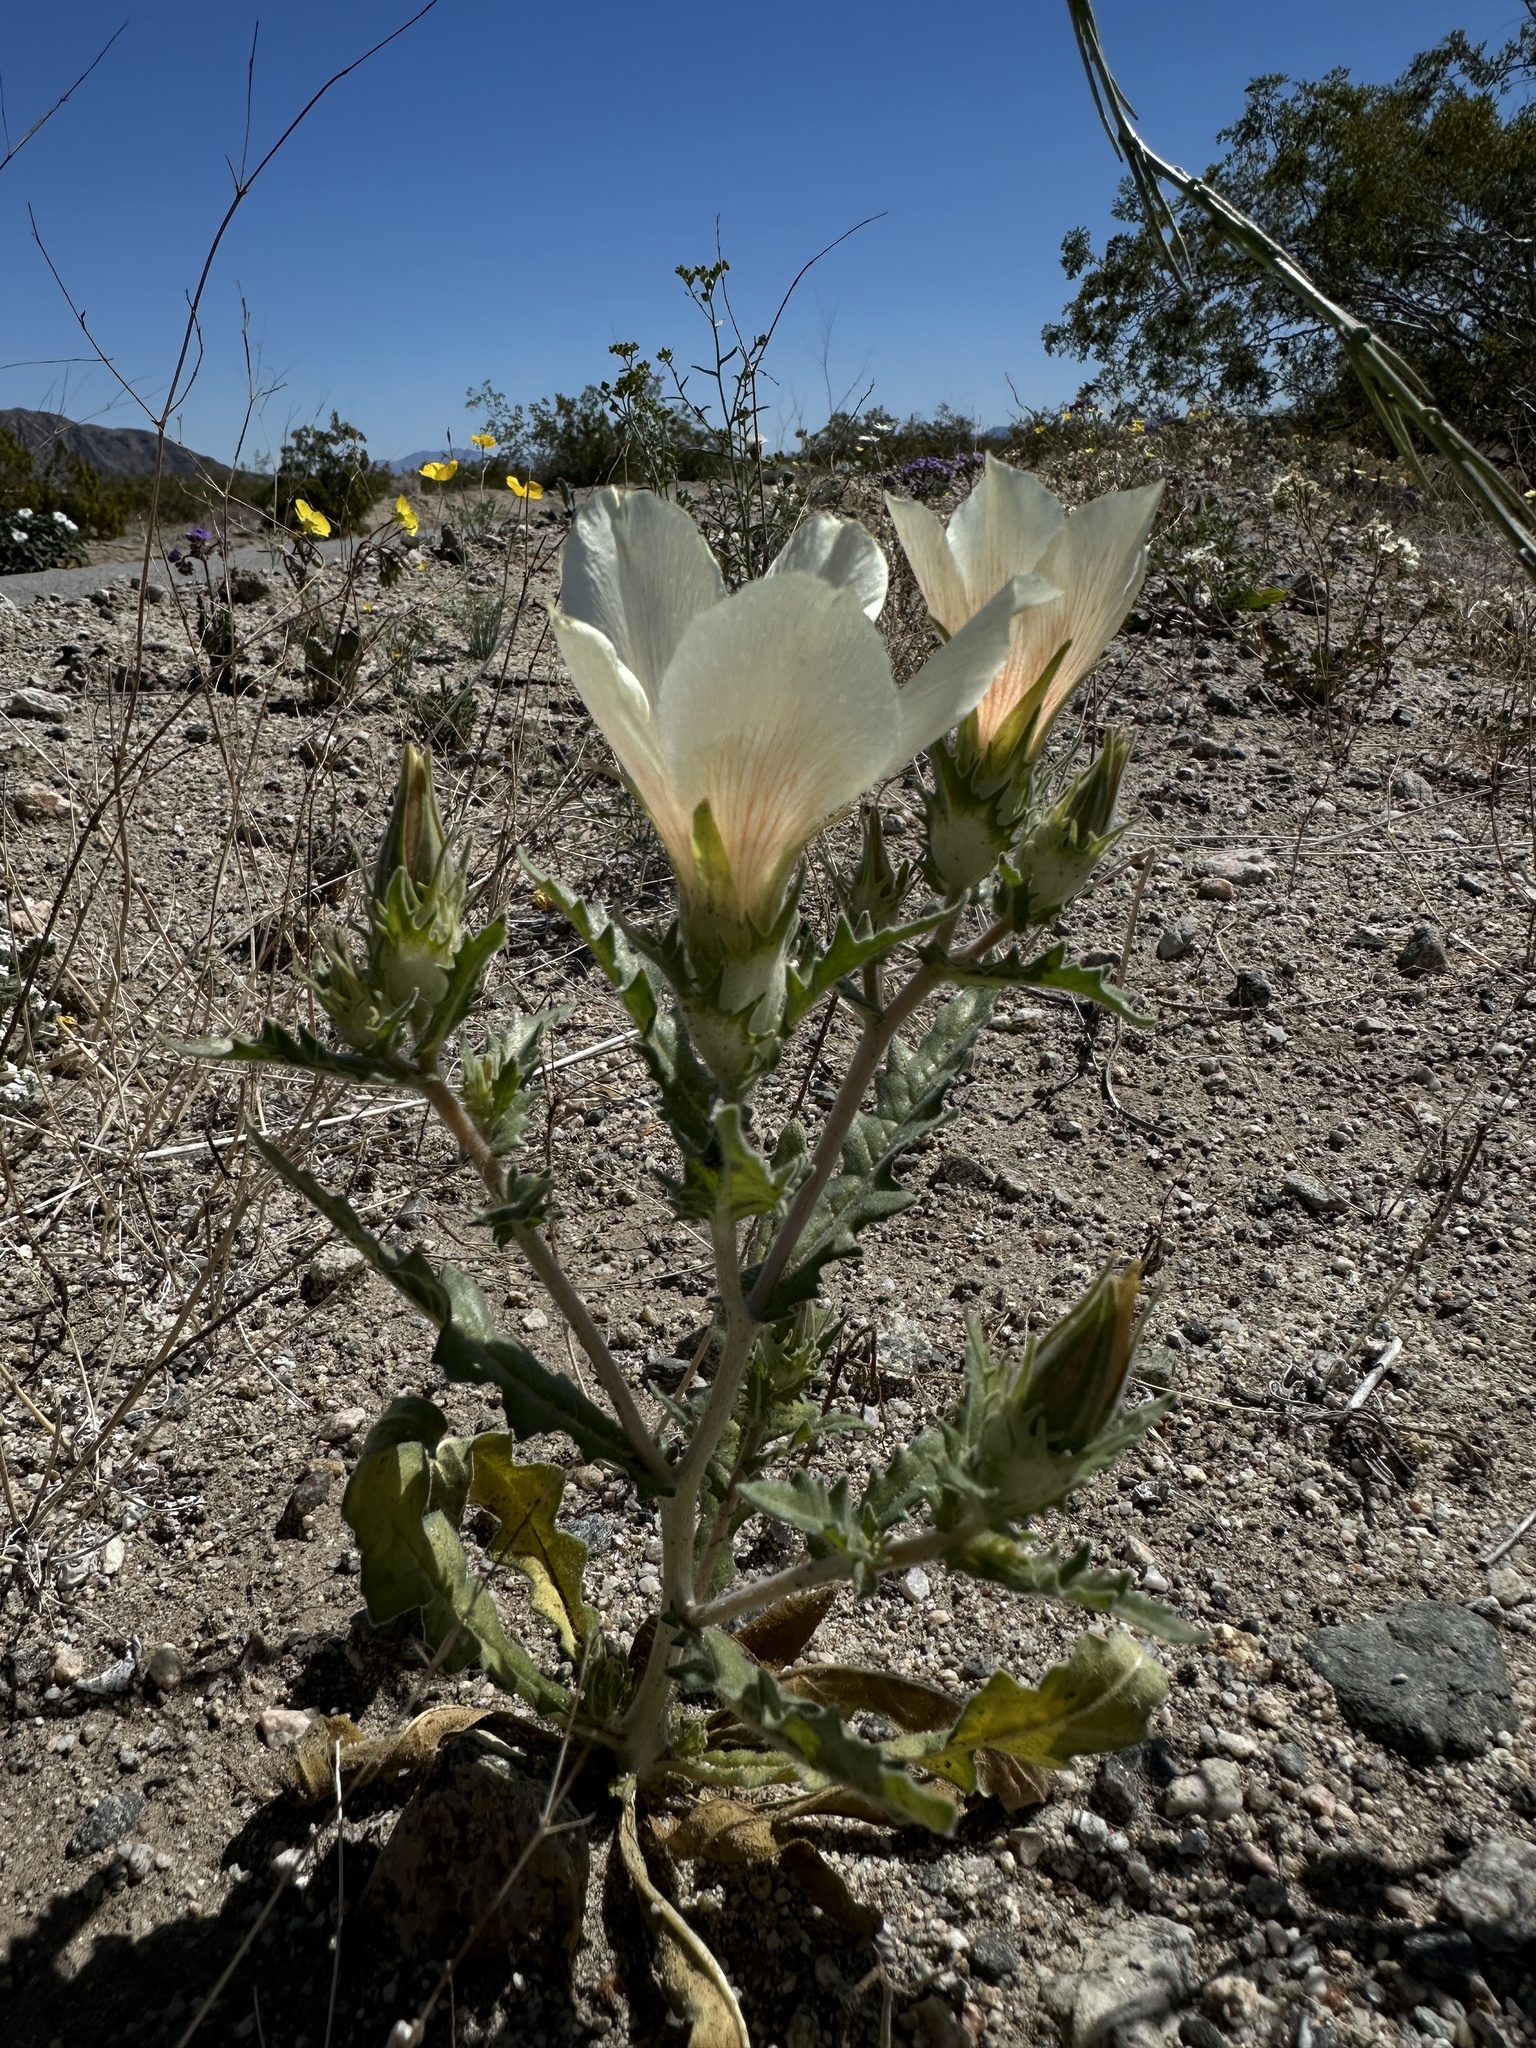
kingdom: Plantae
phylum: Tracheophyta
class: Magnoliopsida
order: Cornales
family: Loasaceae
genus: Mentzelia
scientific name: Mentzelia involucrata
